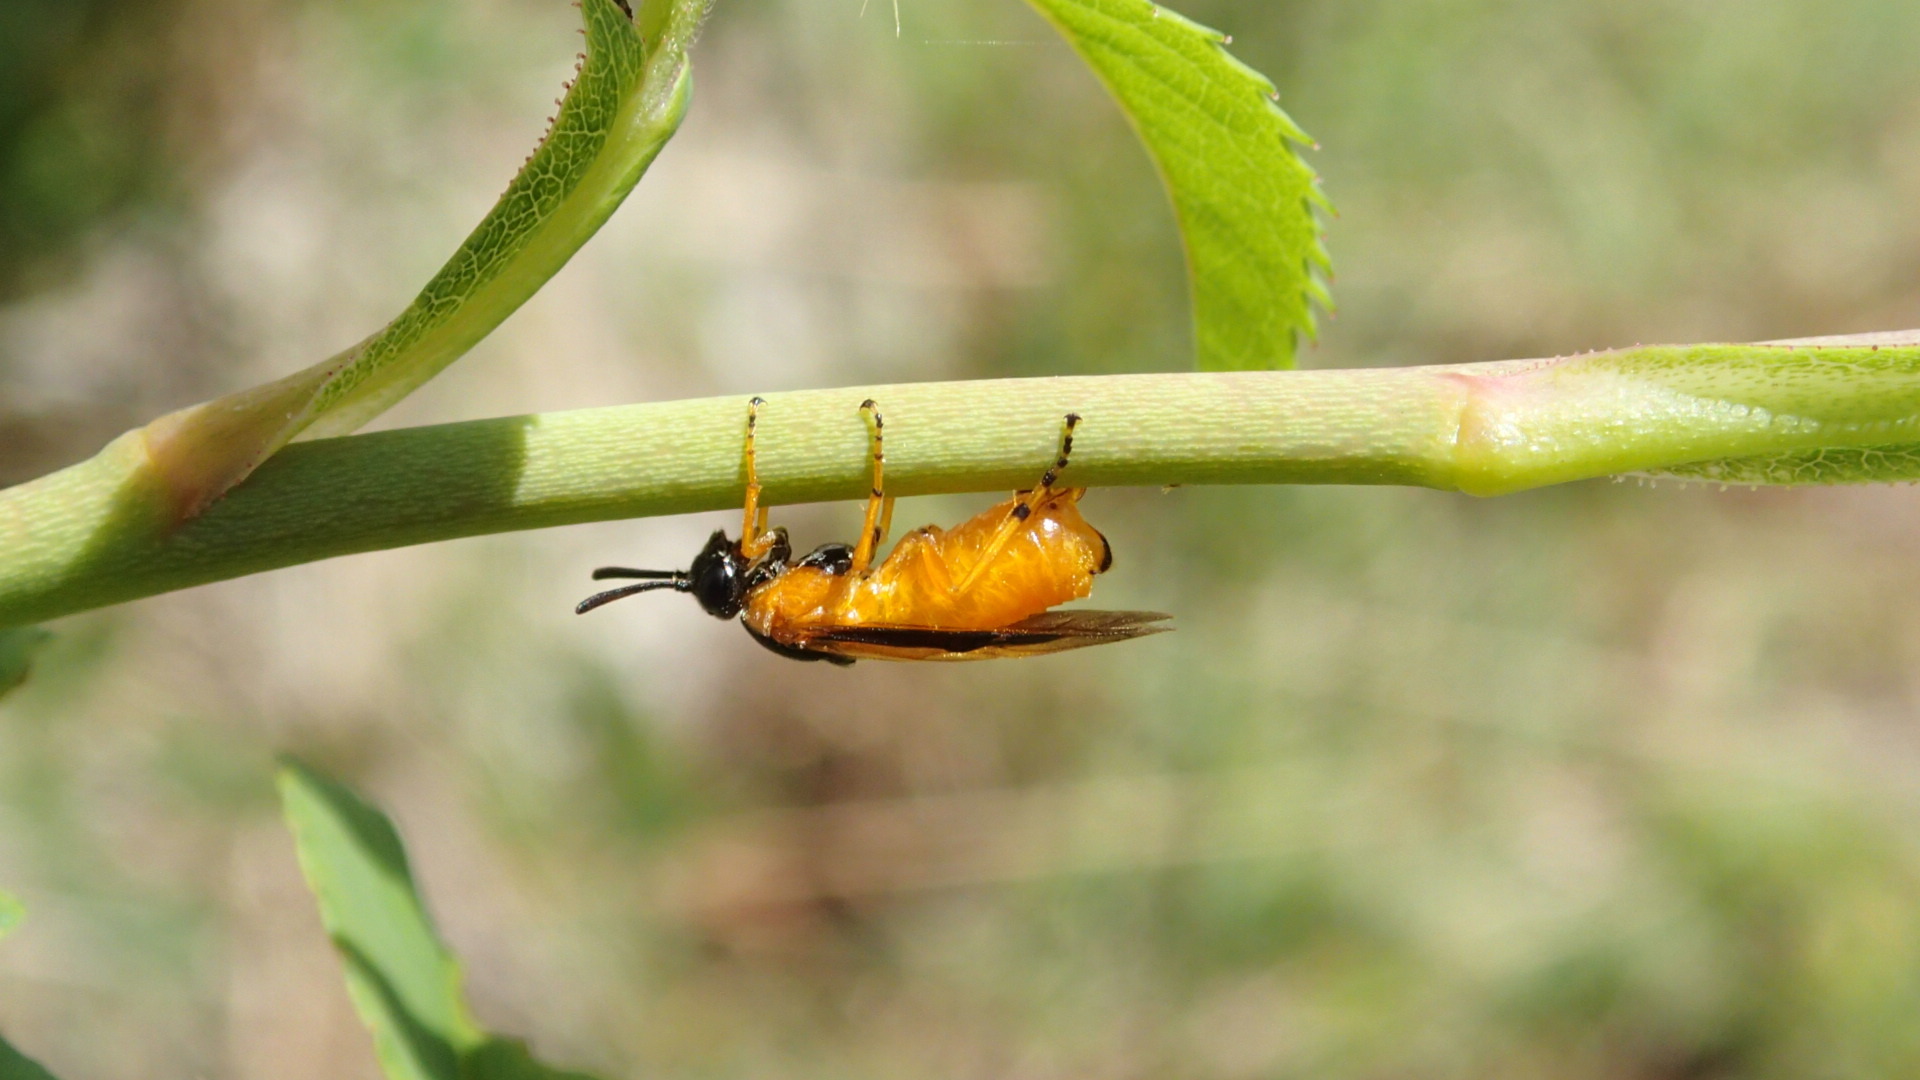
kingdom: Animalia
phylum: Arthropoda
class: Insecta
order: Hymenoptera
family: Argidae
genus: Arge
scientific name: Arge ochropus
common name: Argid sawfly
